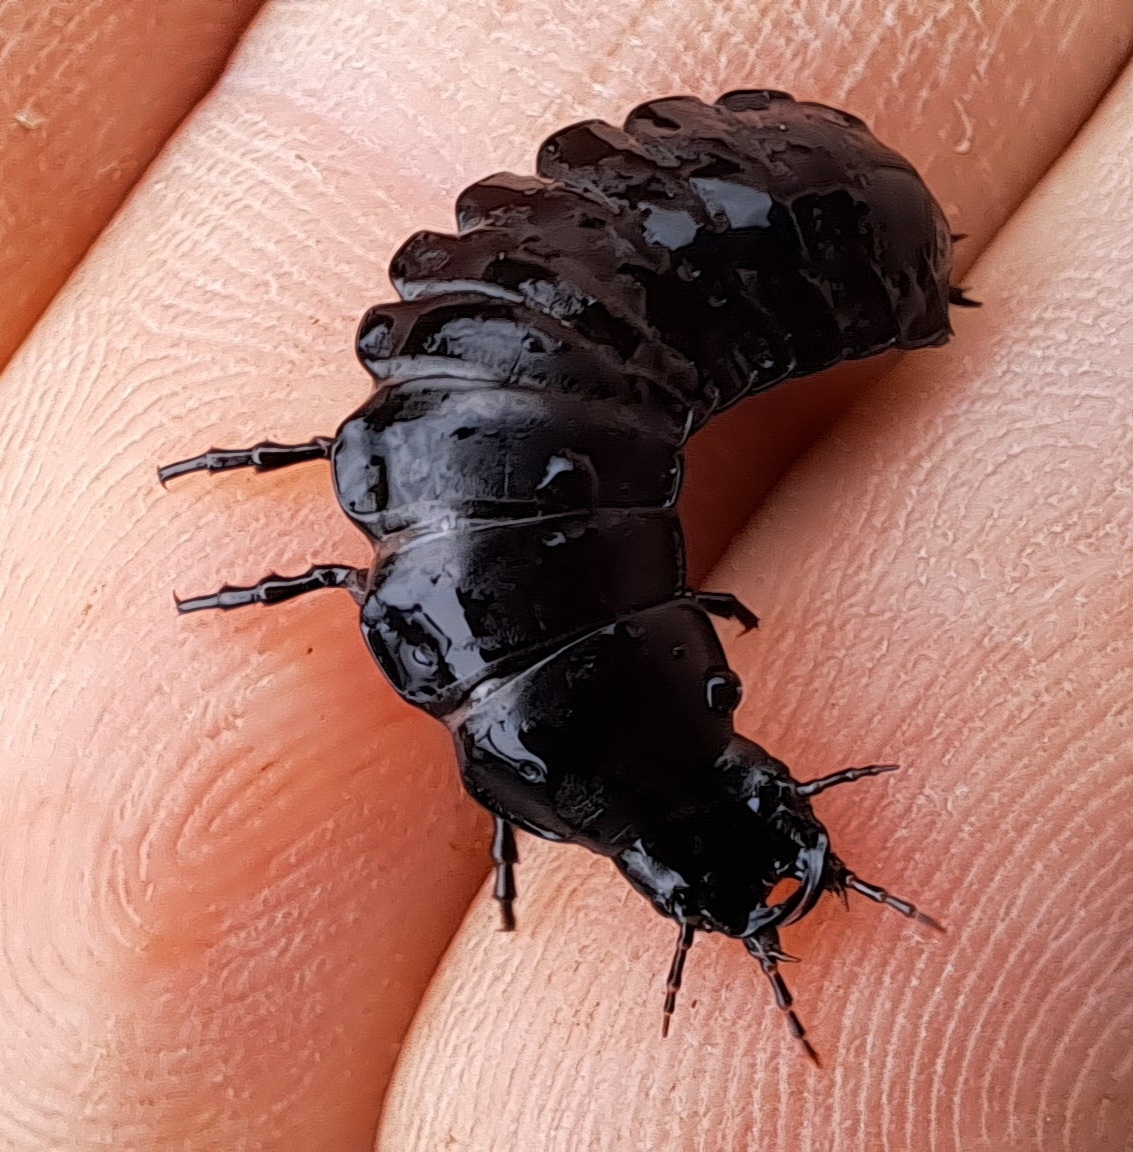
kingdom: Animalia
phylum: Arthropoda
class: Insecta
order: Coleoptera
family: Carabidae
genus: Carabus
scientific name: Carabus
